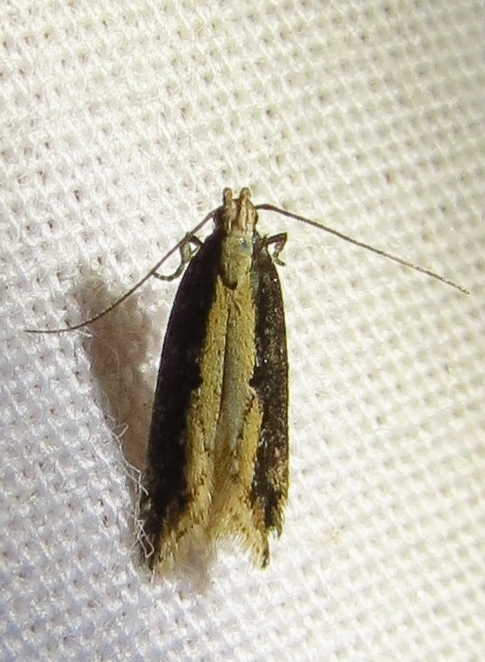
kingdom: Animalia
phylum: Arthropoda
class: Insecta
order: Lepidoptera
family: Gelechiidae
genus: Aristotelia
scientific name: Aristotelia corallina
